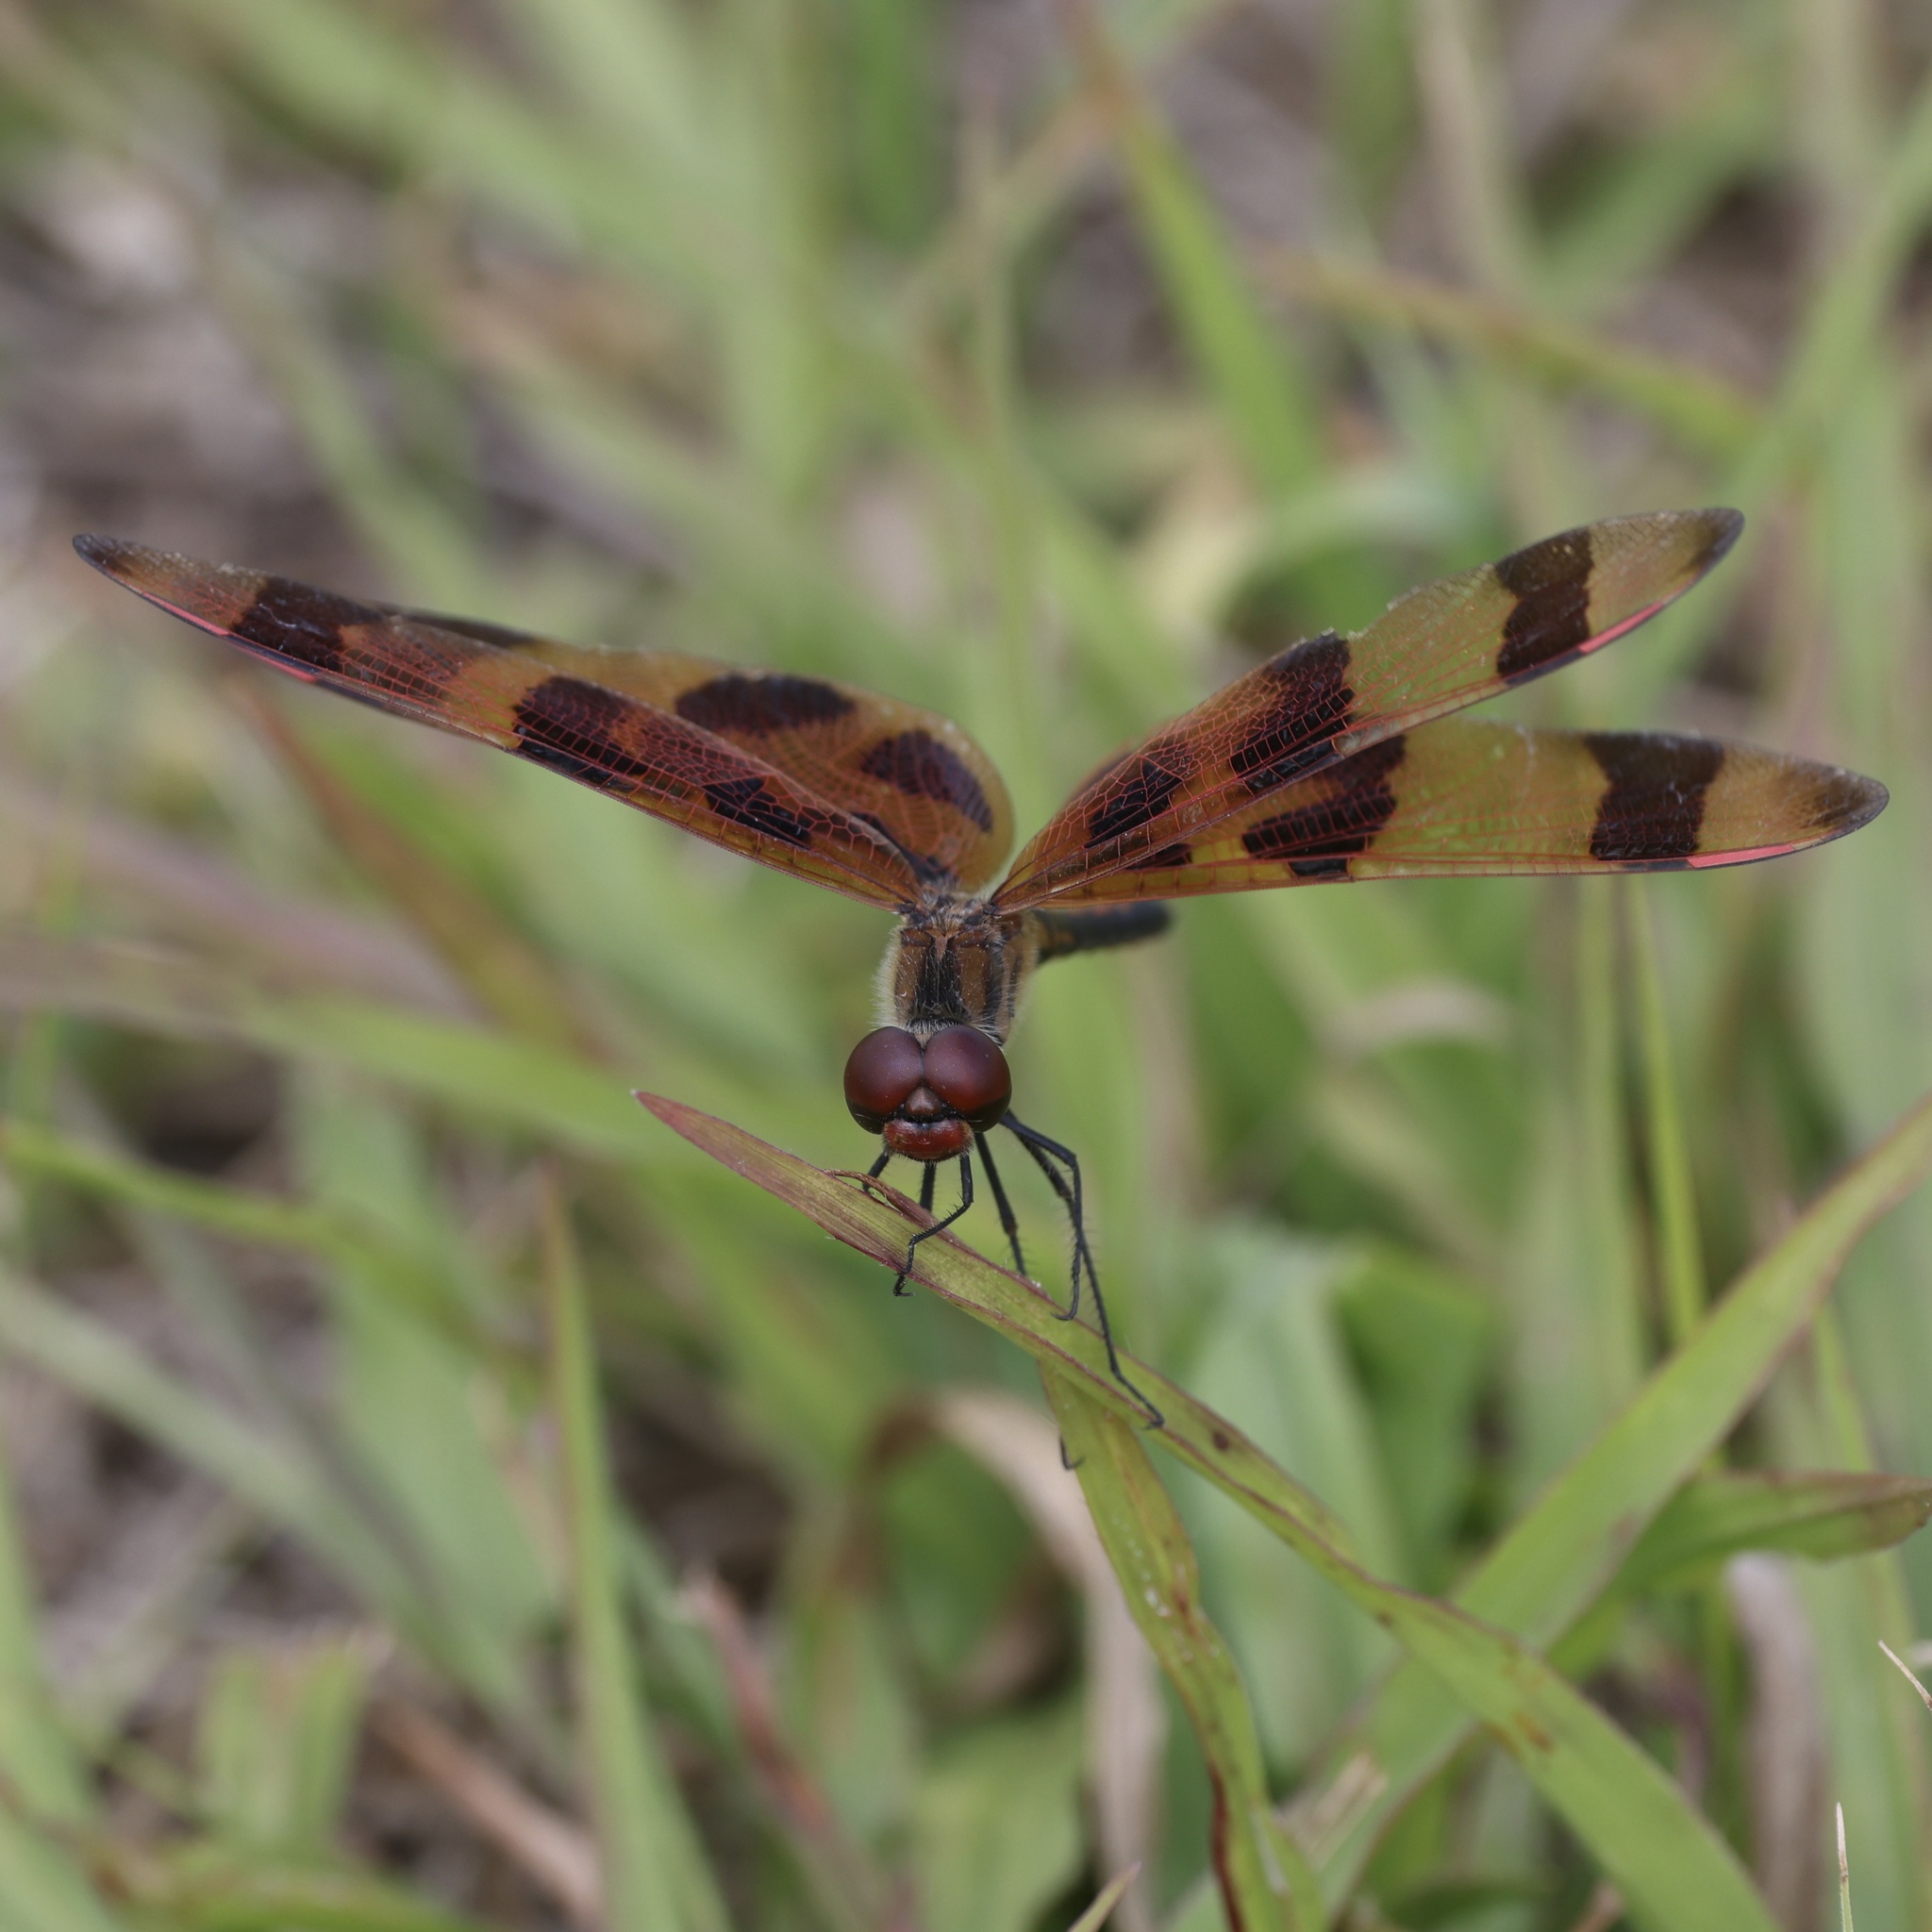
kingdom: Animalia
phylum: Arthropoda
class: Insecta
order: Odonata
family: Libellulidae
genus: Celithemis
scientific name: Celithemis eponina
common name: Halloween pennant
